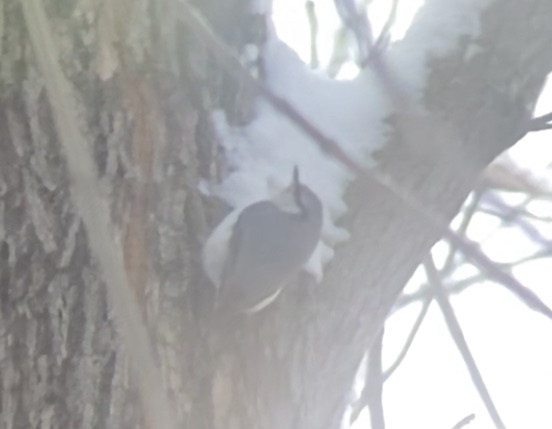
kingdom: Animalia
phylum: Chordata
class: Aves
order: Passeriformes
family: Sittidae
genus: Sitta
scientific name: Sitta europaea
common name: Eurasian nuthatch
